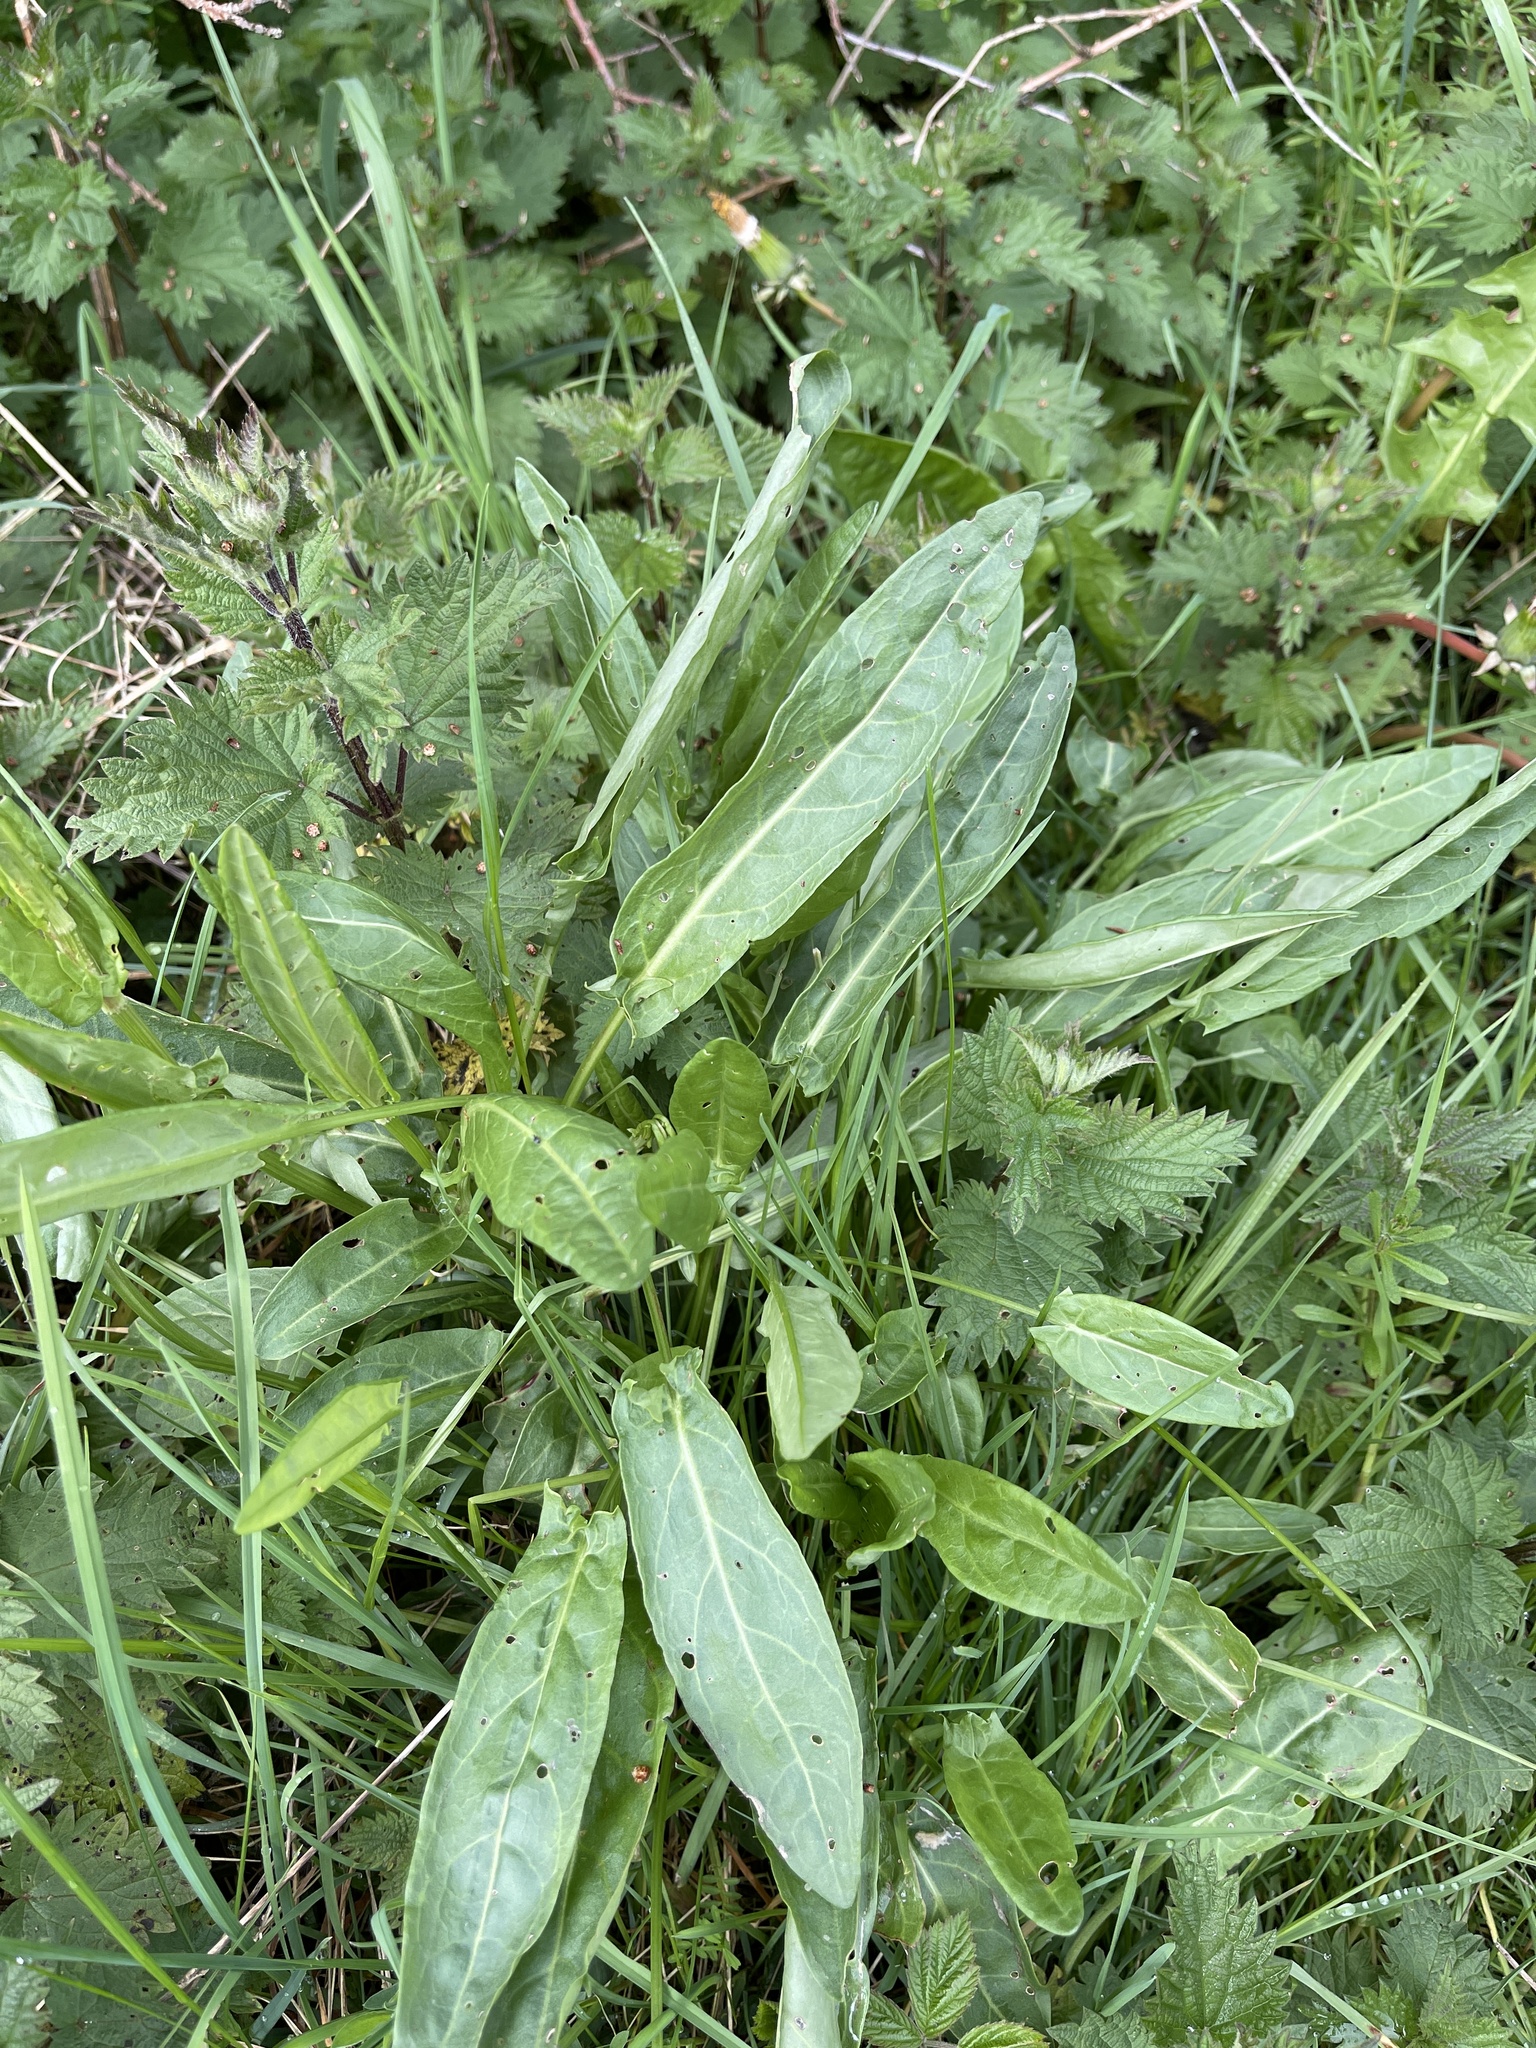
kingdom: Plantae
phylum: Tracheophyta
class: Magnoliopsida
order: Caryophyllales
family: Polygonaceae
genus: Rumex
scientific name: Rumex acetosa
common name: Garden sorrel
